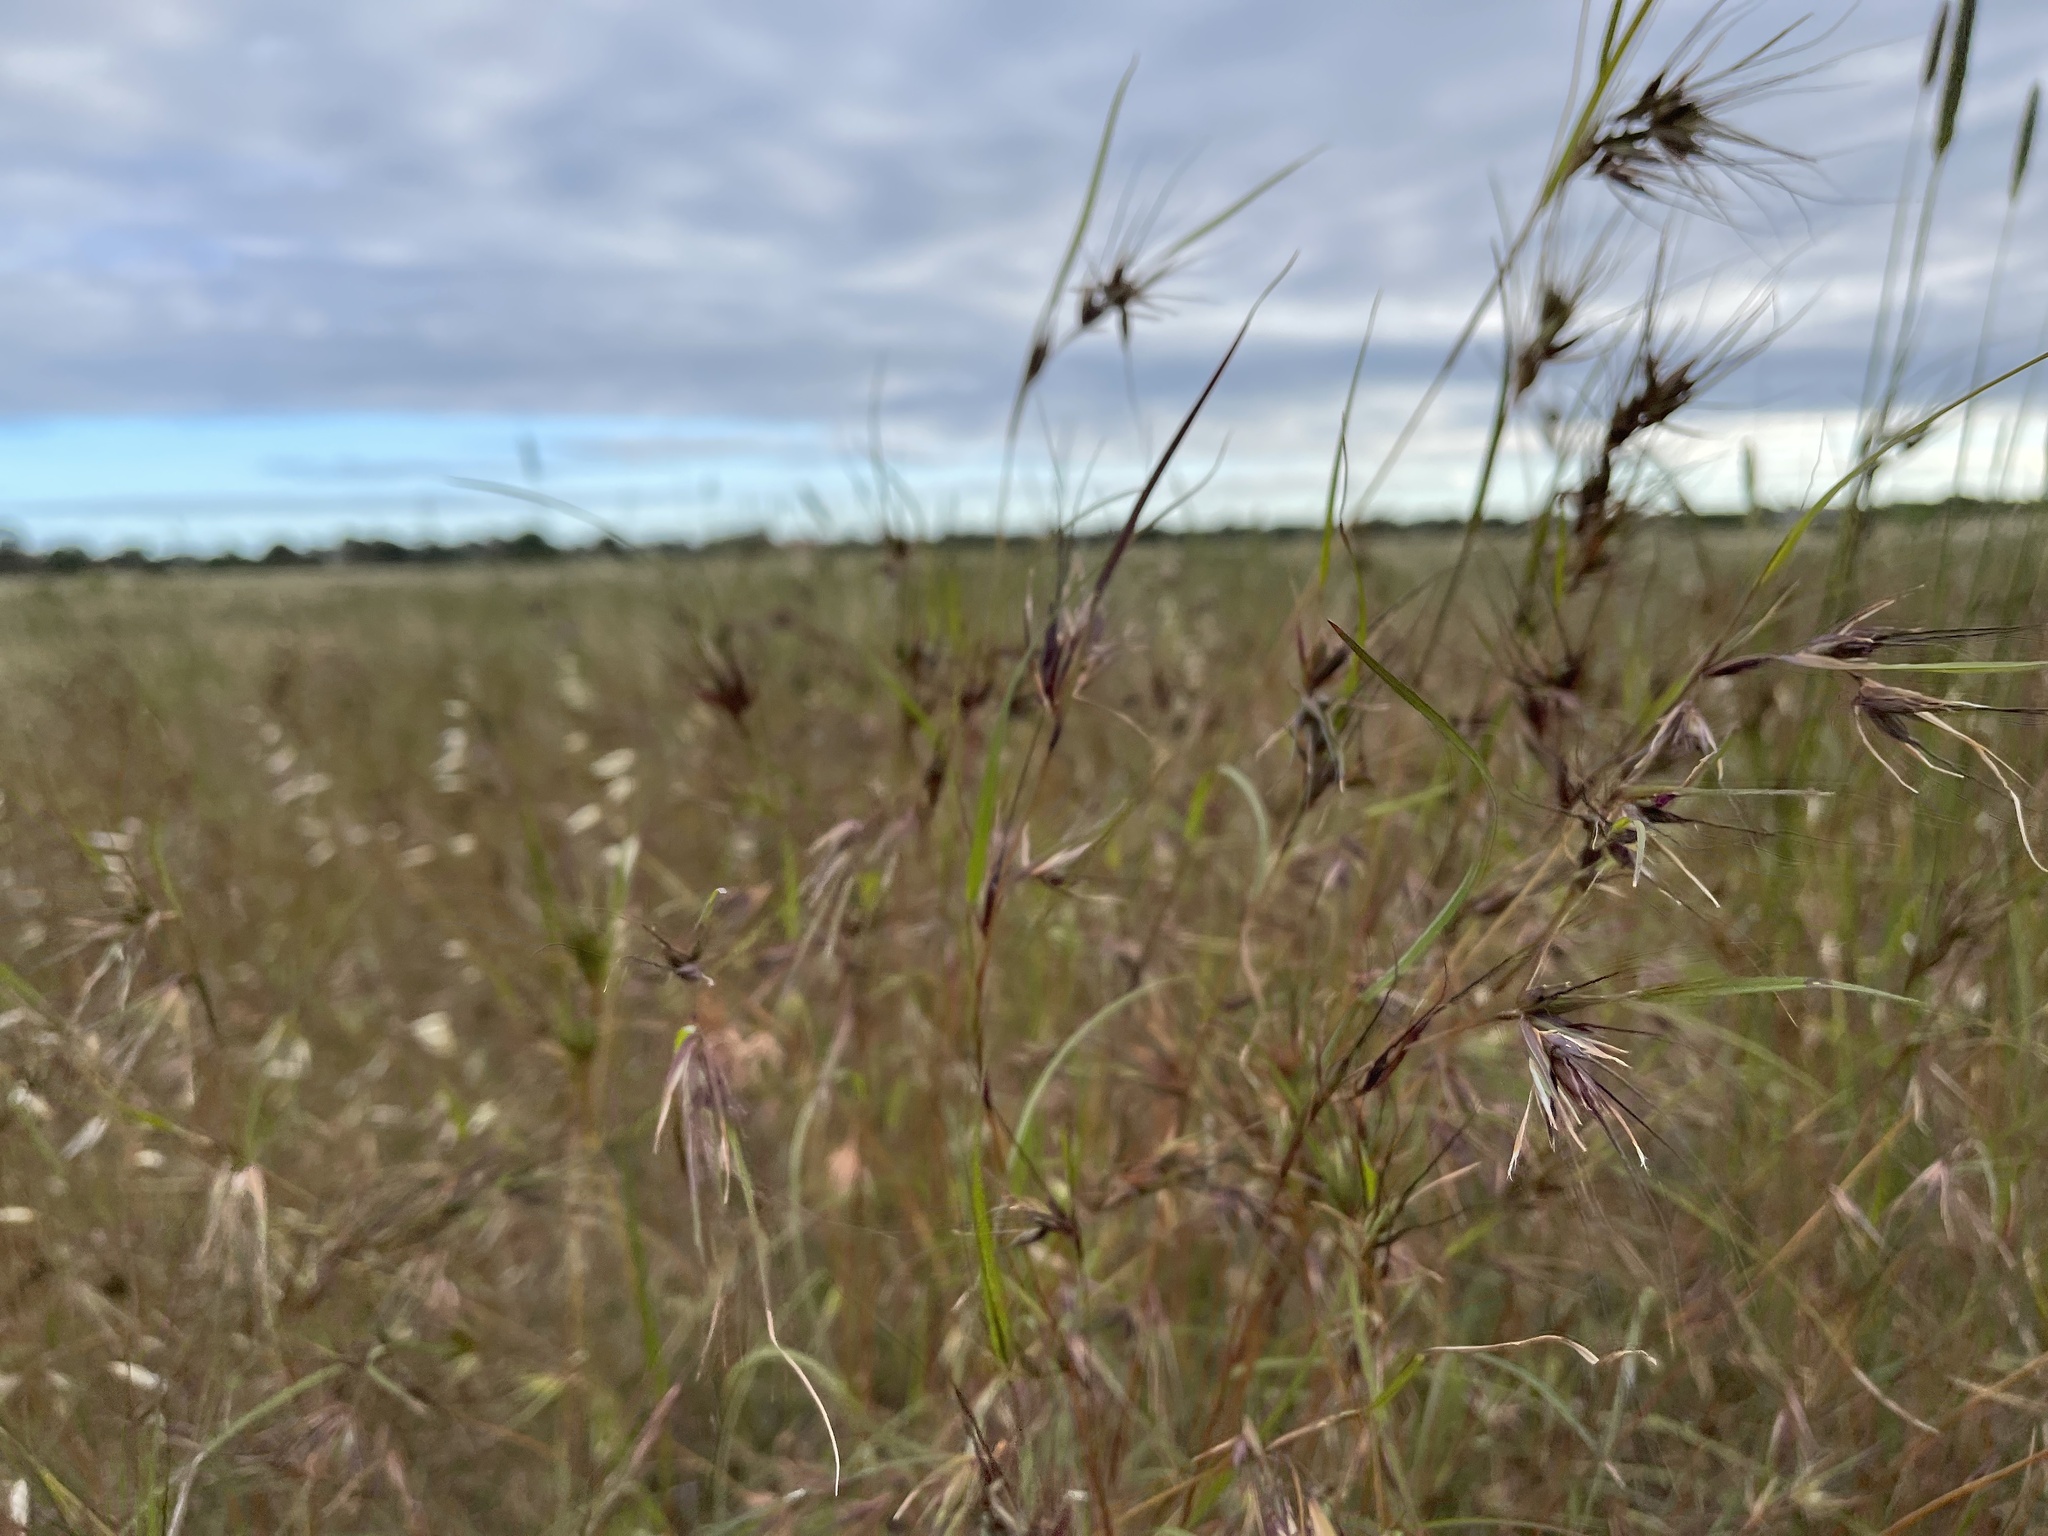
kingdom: Plantae
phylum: Tracheophyta
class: Liliopsida
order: Poales
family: Poaceae
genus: Themeda
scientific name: Themeda triandra
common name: Kangaroo grass
